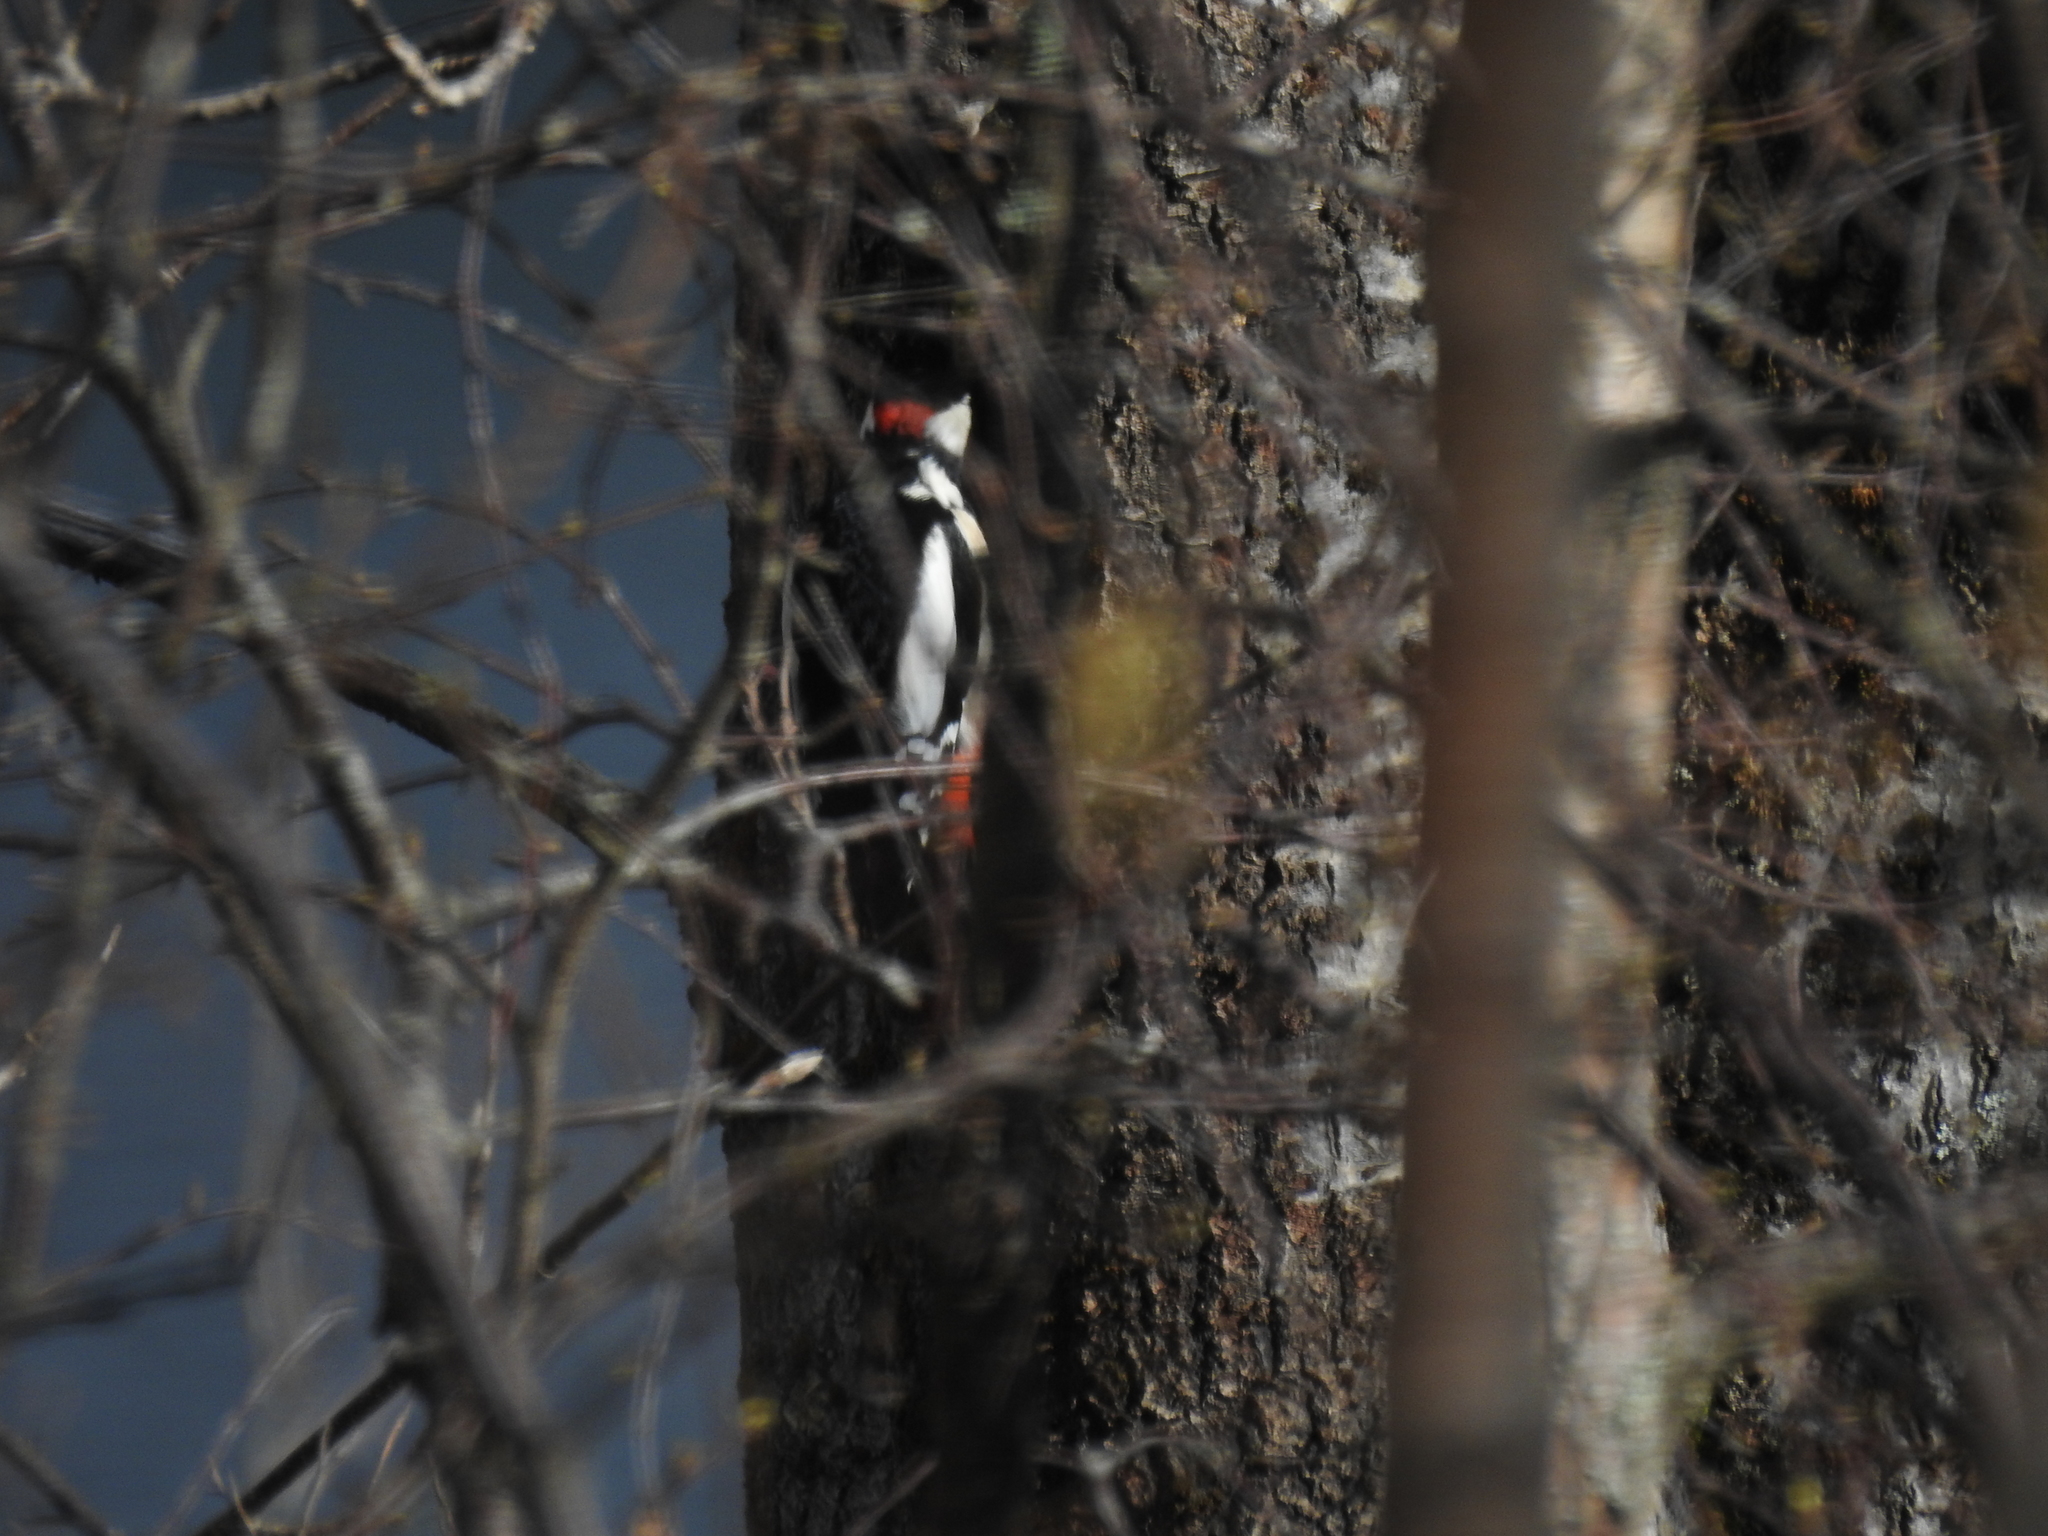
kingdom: Animalia
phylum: Chordata
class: Aves
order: Piciformes
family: Picidae
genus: Dendrocopos
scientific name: Dendrocopos major
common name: Great spotted woodpecker
